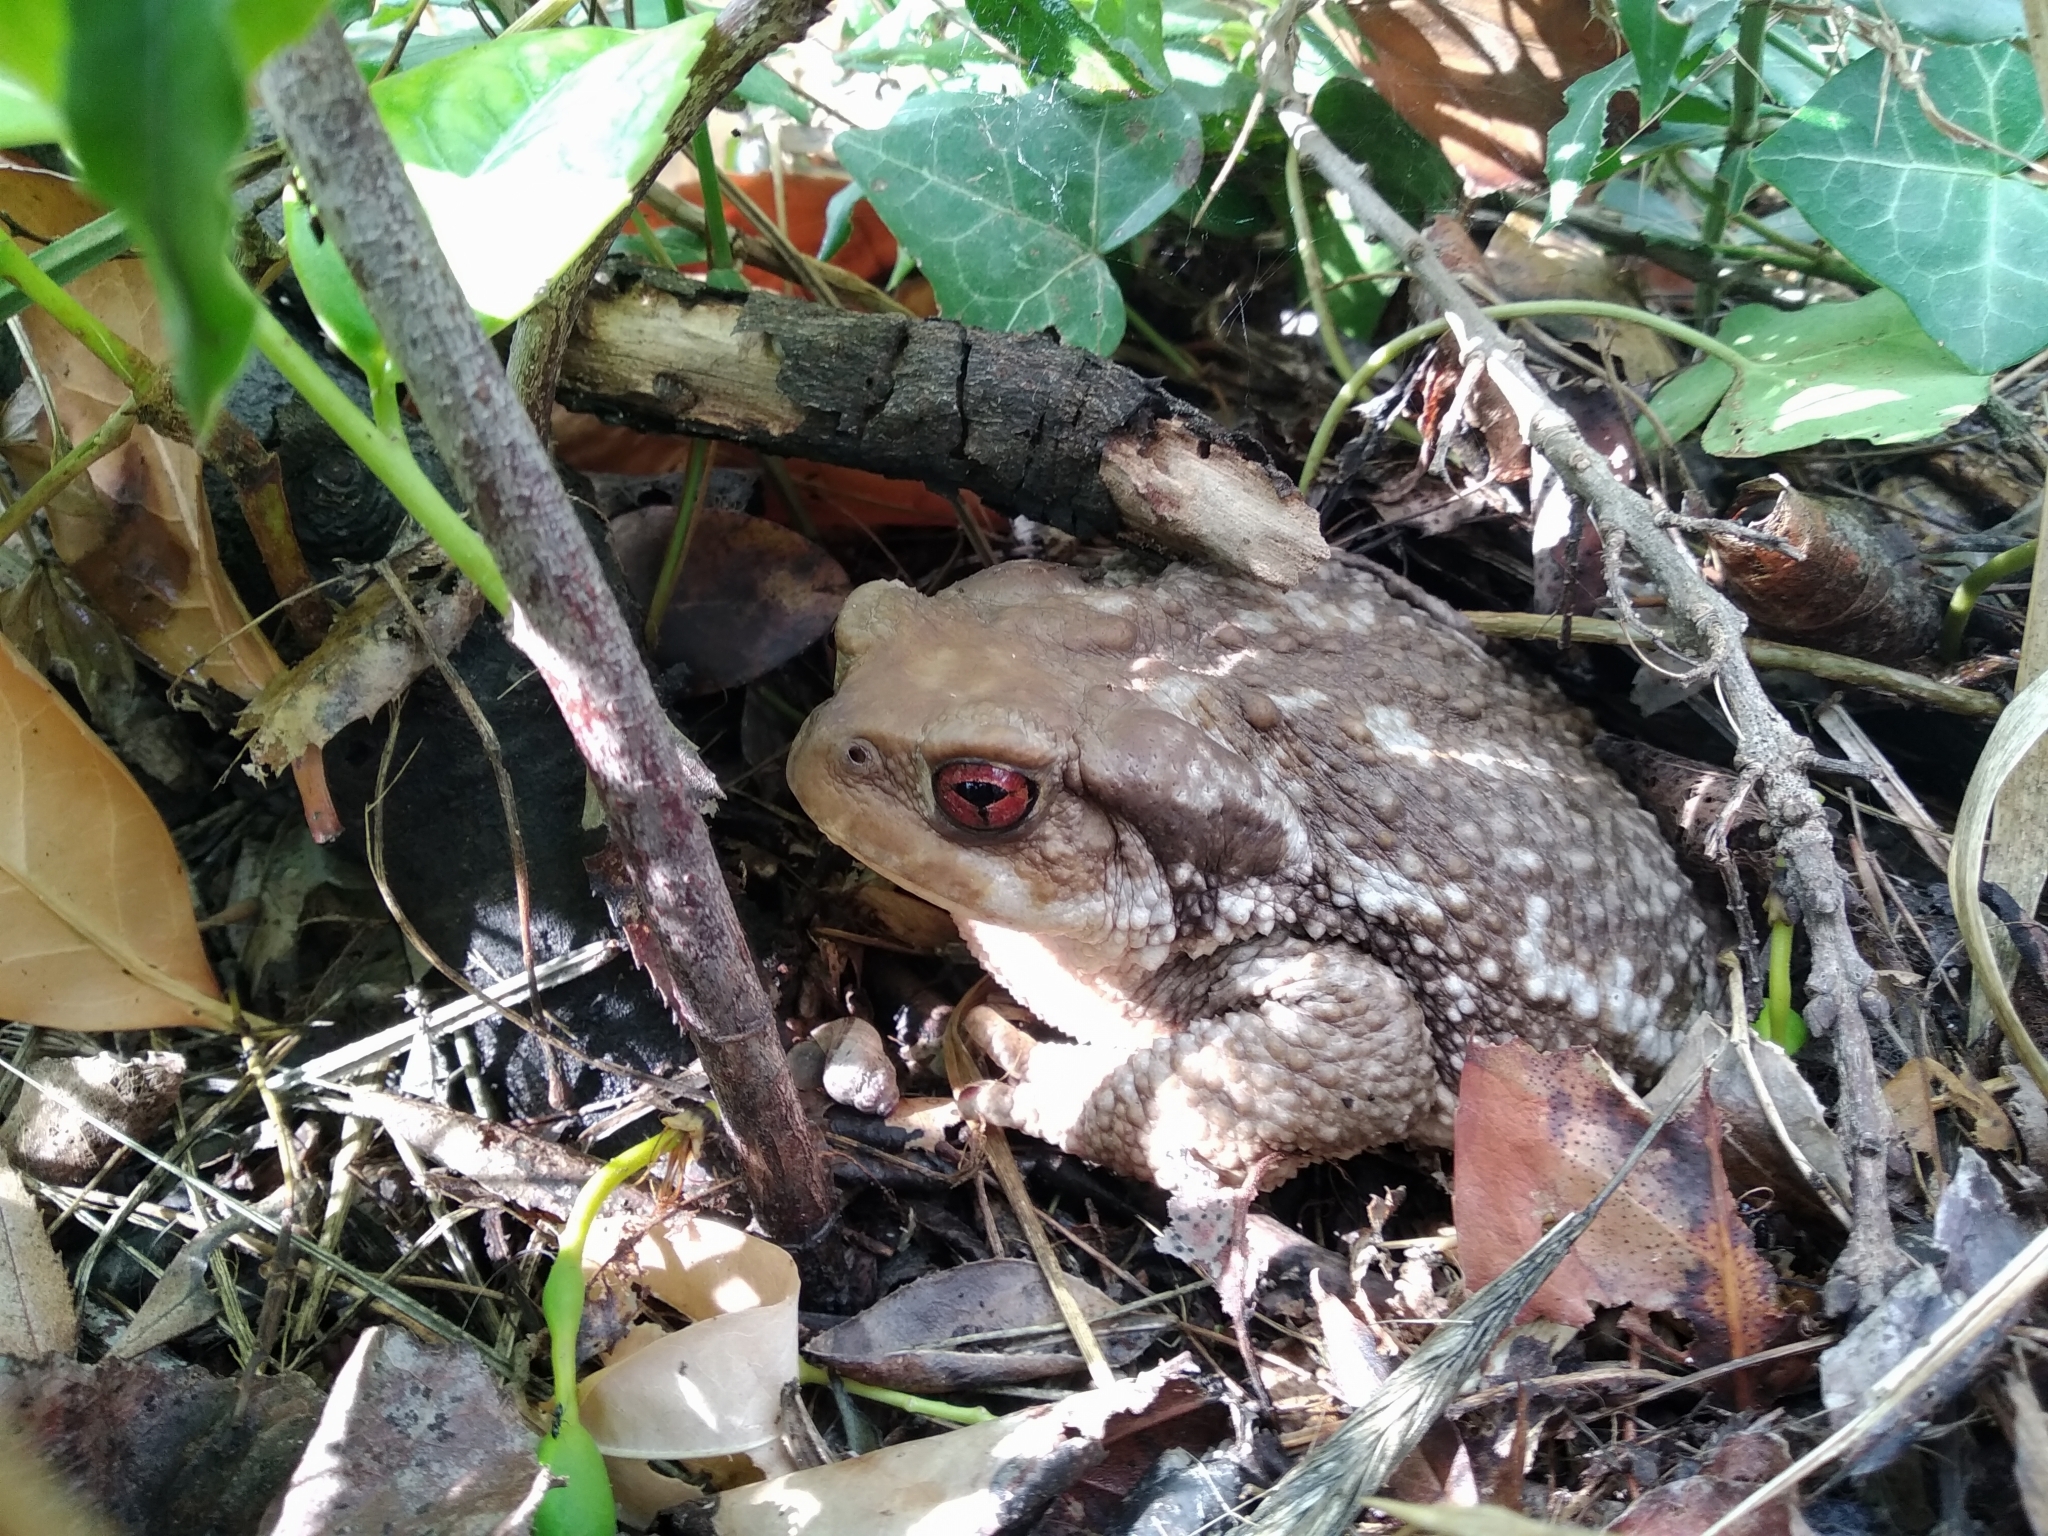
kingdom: Animalia
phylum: Chordata
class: Amphibia
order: Anura
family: Bufonidae
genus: Bufo
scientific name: Bufo spinosus
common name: Western common toad
